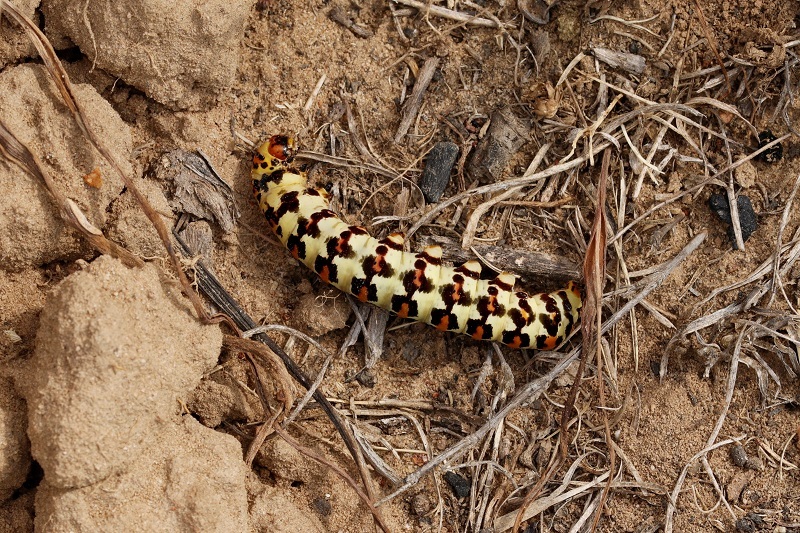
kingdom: Animalia
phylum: Arthropoda
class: Insecta
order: Lepidoptera
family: Noctuidae
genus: Diaphone
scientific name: Diaphone eumela
